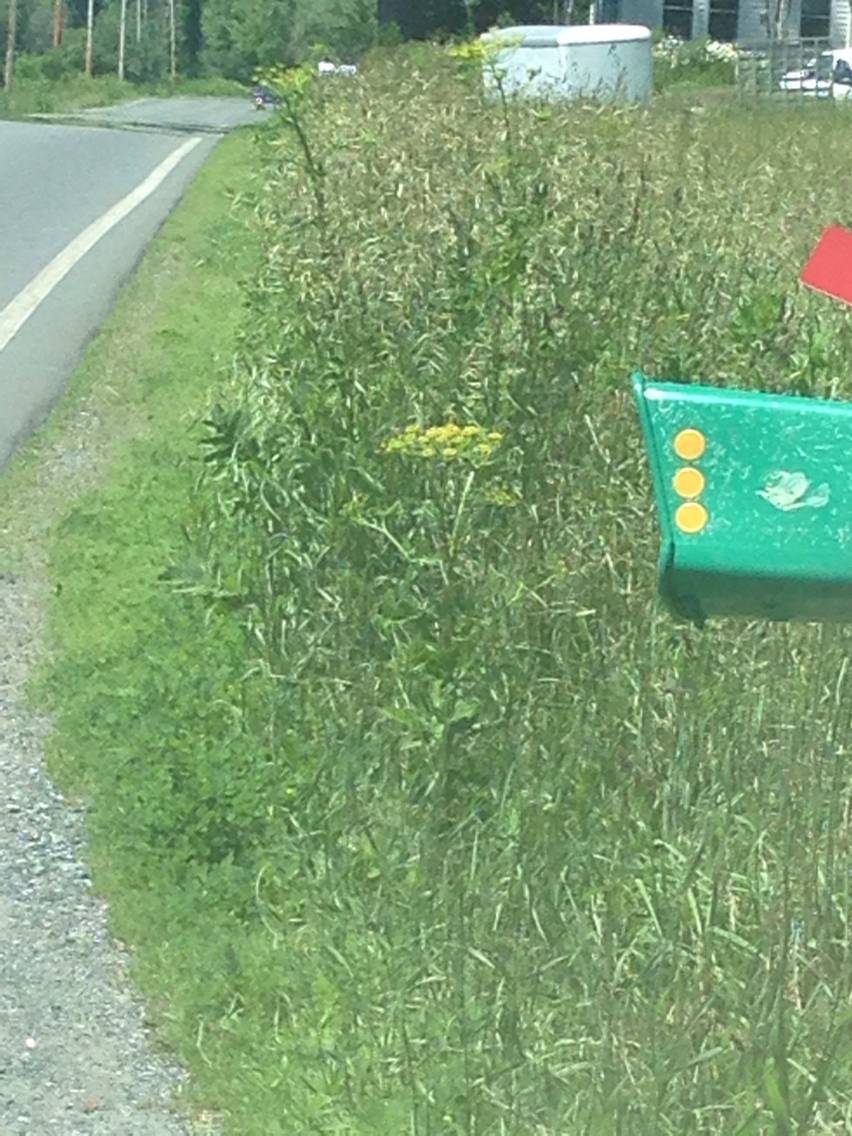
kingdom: Plantae
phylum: Tracheophyta
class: Magnoliopsida
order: Apiales
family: Apiaceae
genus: Pastinaca
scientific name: Pastinaca sativa
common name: Wild parsnip
